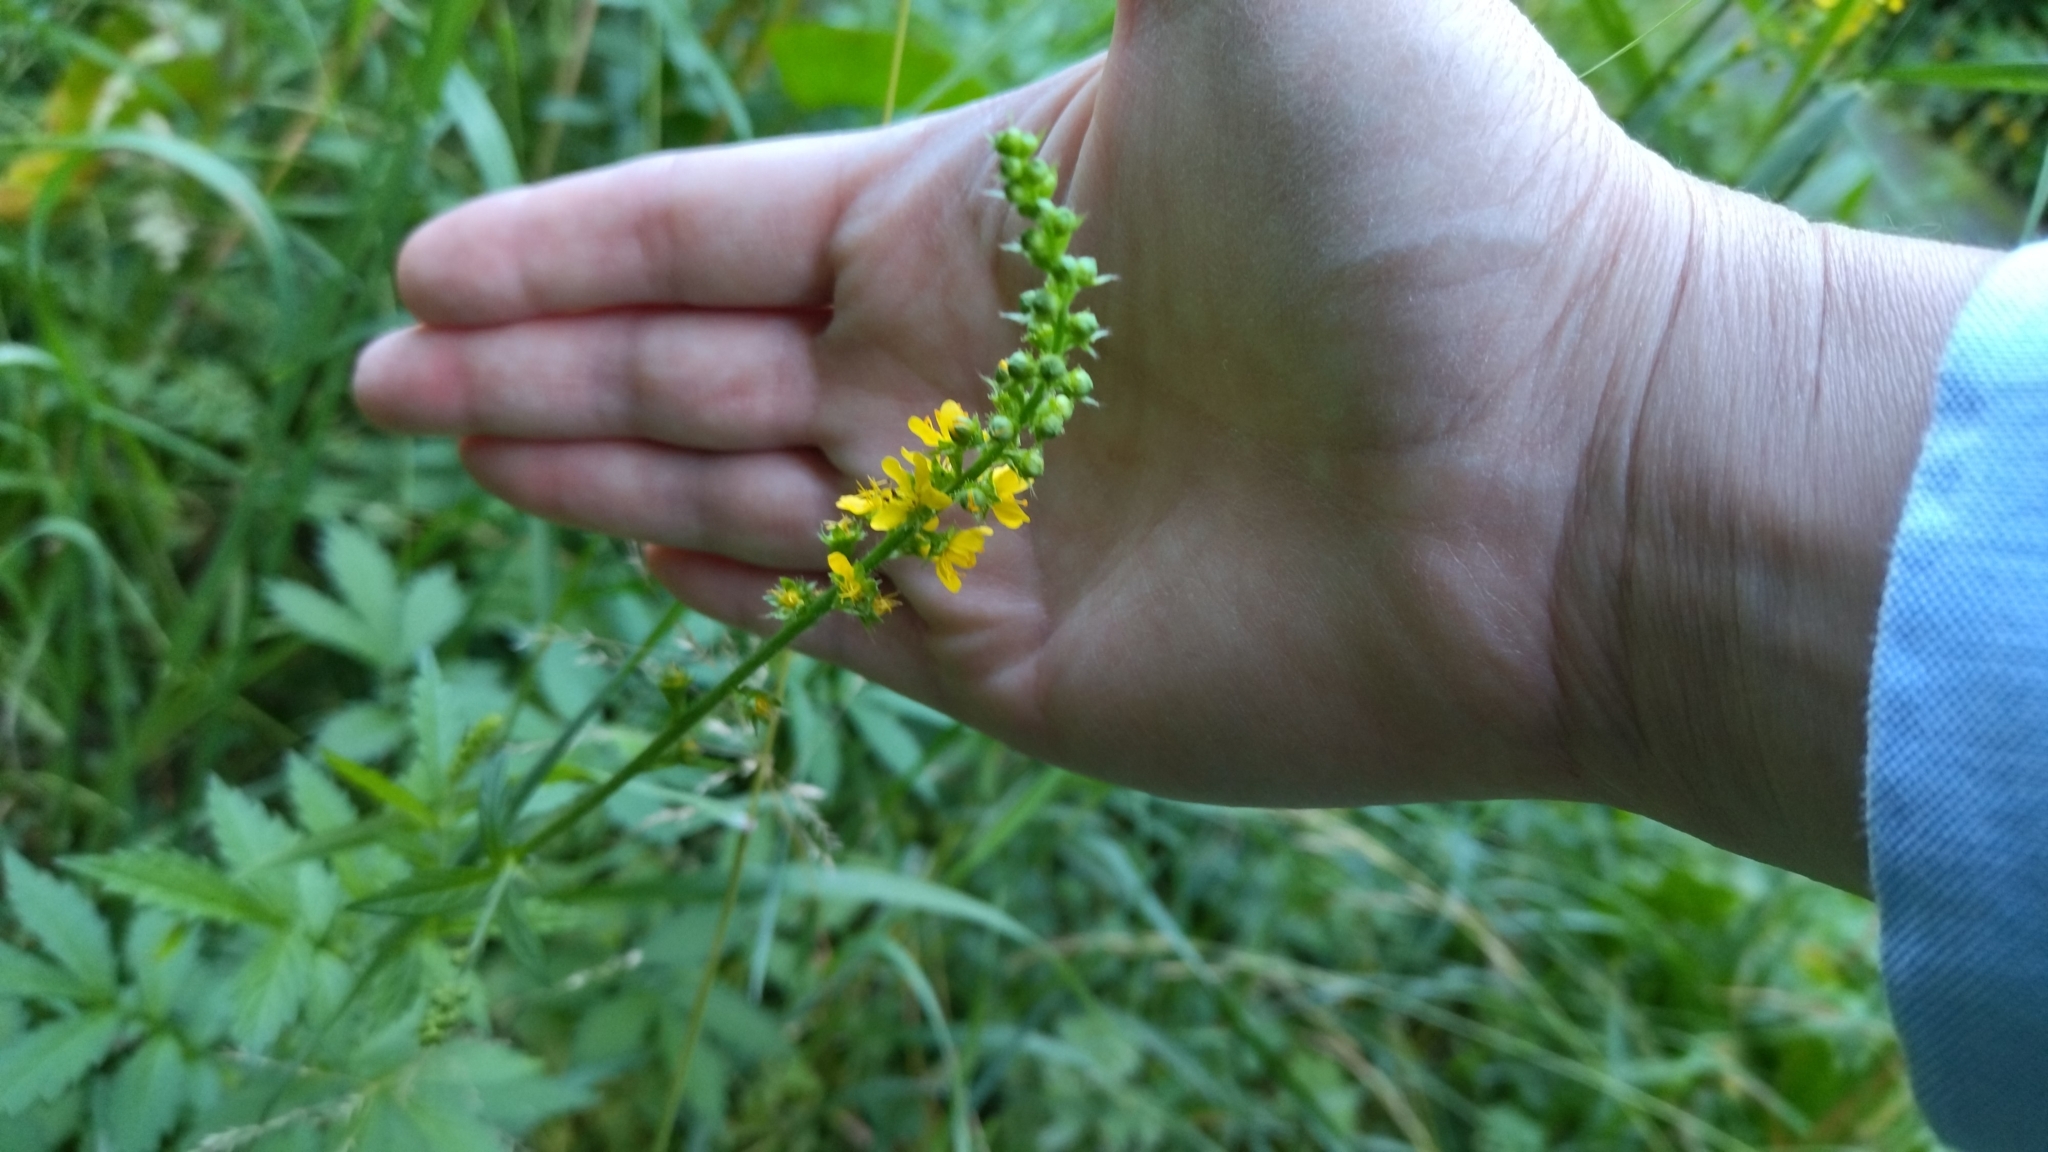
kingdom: Plantae
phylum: Tracheophyta
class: Magnoliopsida
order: Rosales
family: Rosaceae
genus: Agrimonia
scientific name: Agrimonia pilosa
